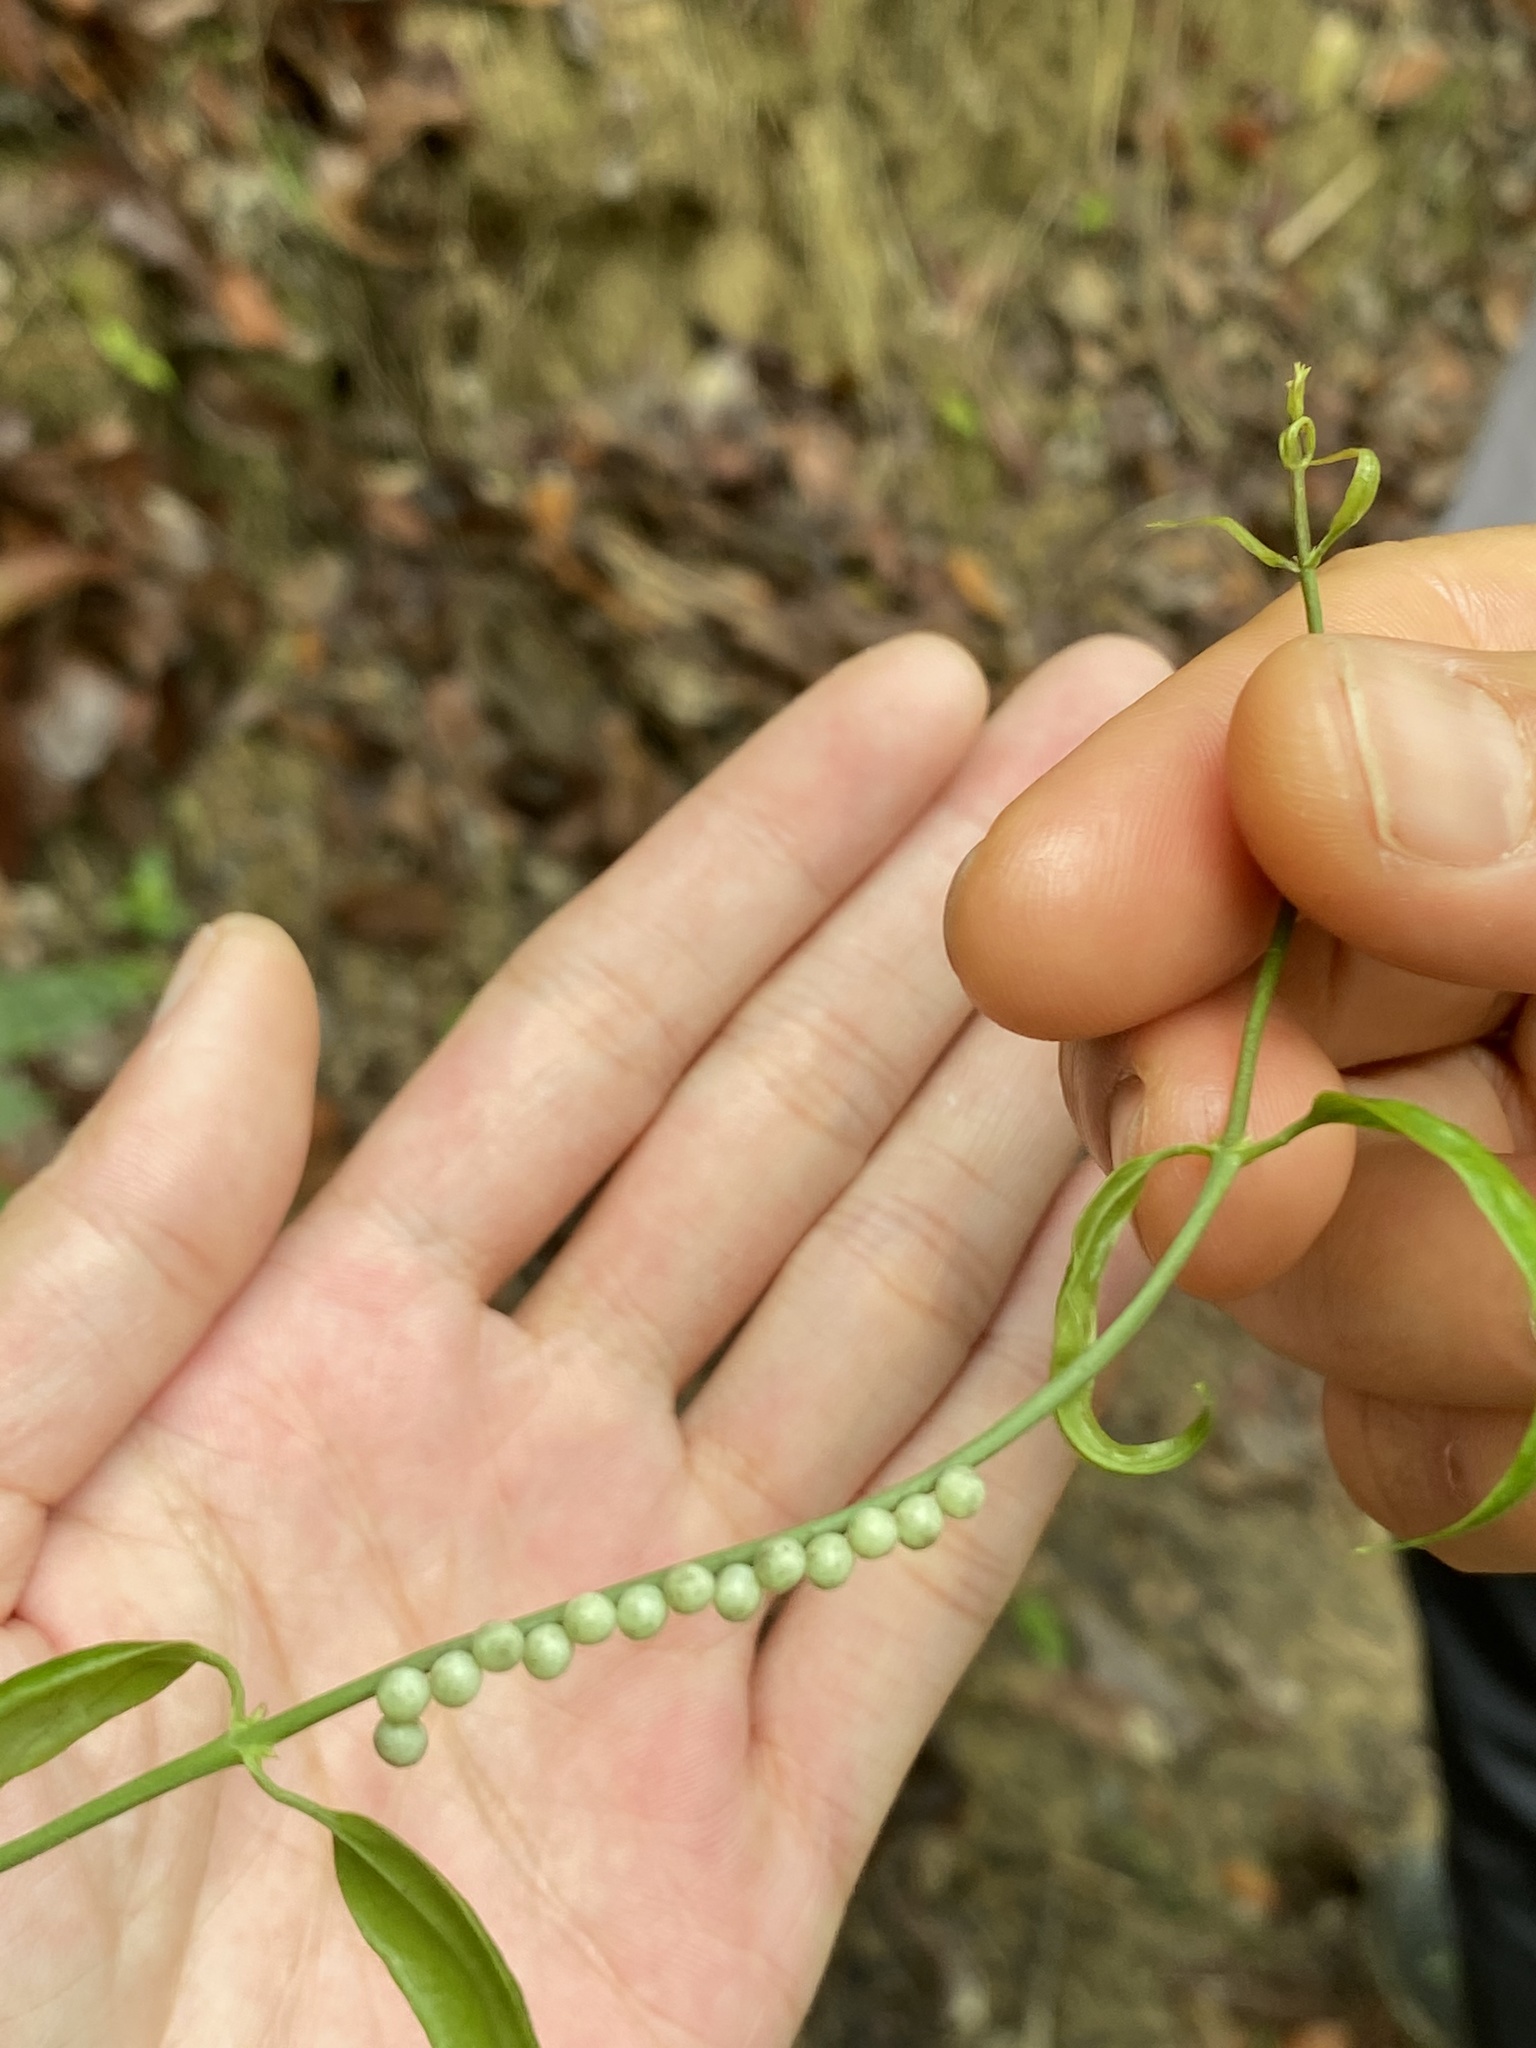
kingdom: Animalia
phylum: Arthropoda
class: Insecta
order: Hemiptera
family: Tessaratomidae
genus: Tessaratoma
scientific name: Tessaratoma papillosa
